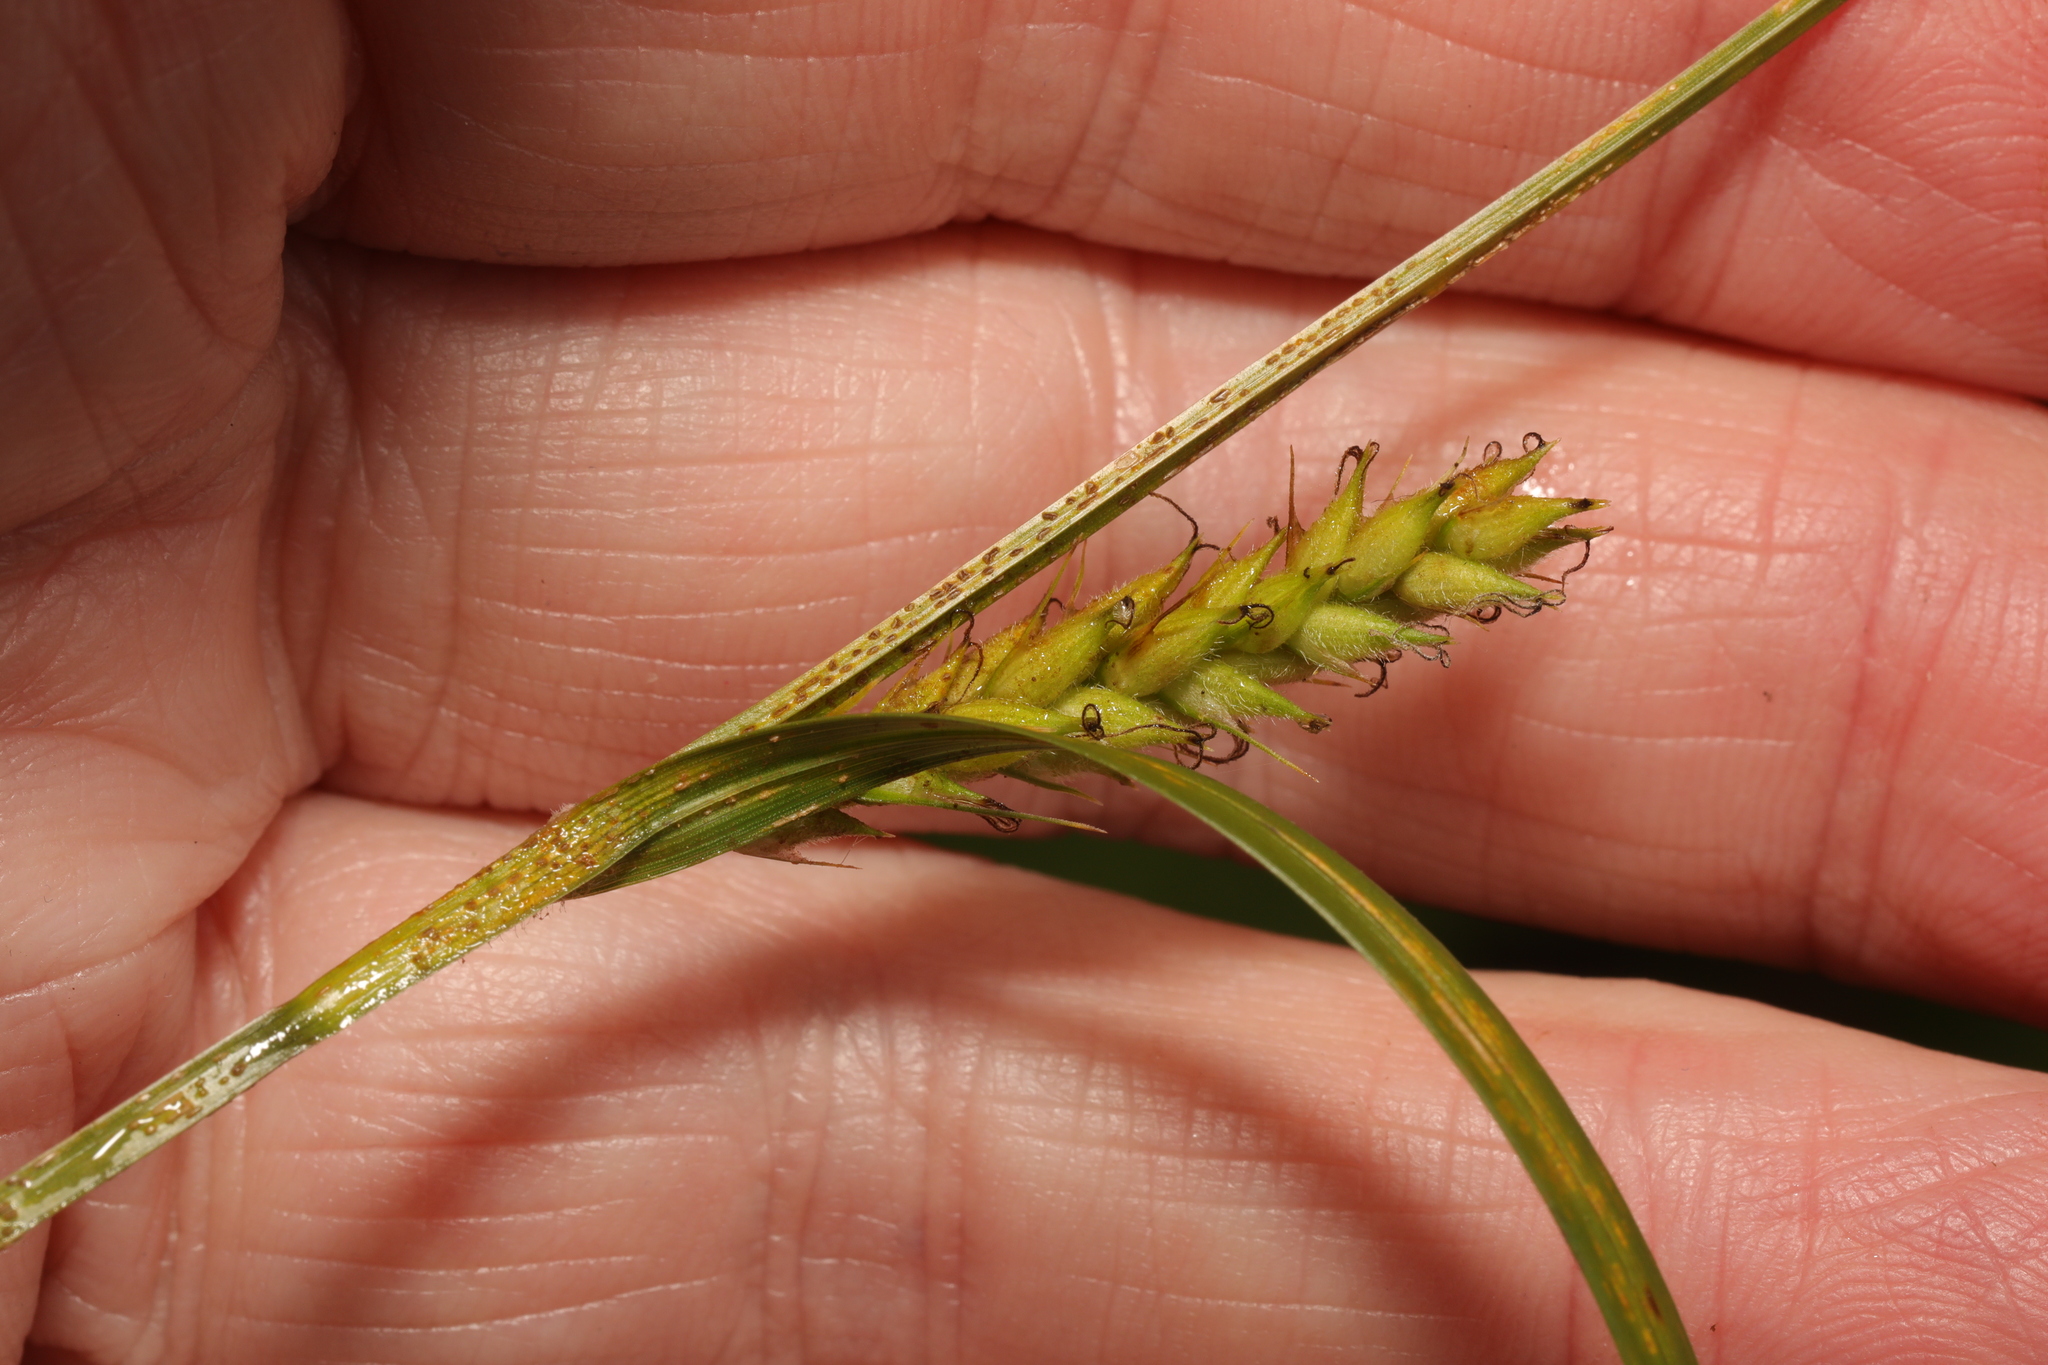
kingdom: Plantae
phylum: Tracheophyta
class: Liliopsida
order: Poales
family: Cyperaceae
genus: Carex
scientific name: Carex hirta
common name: Hairy sedge
